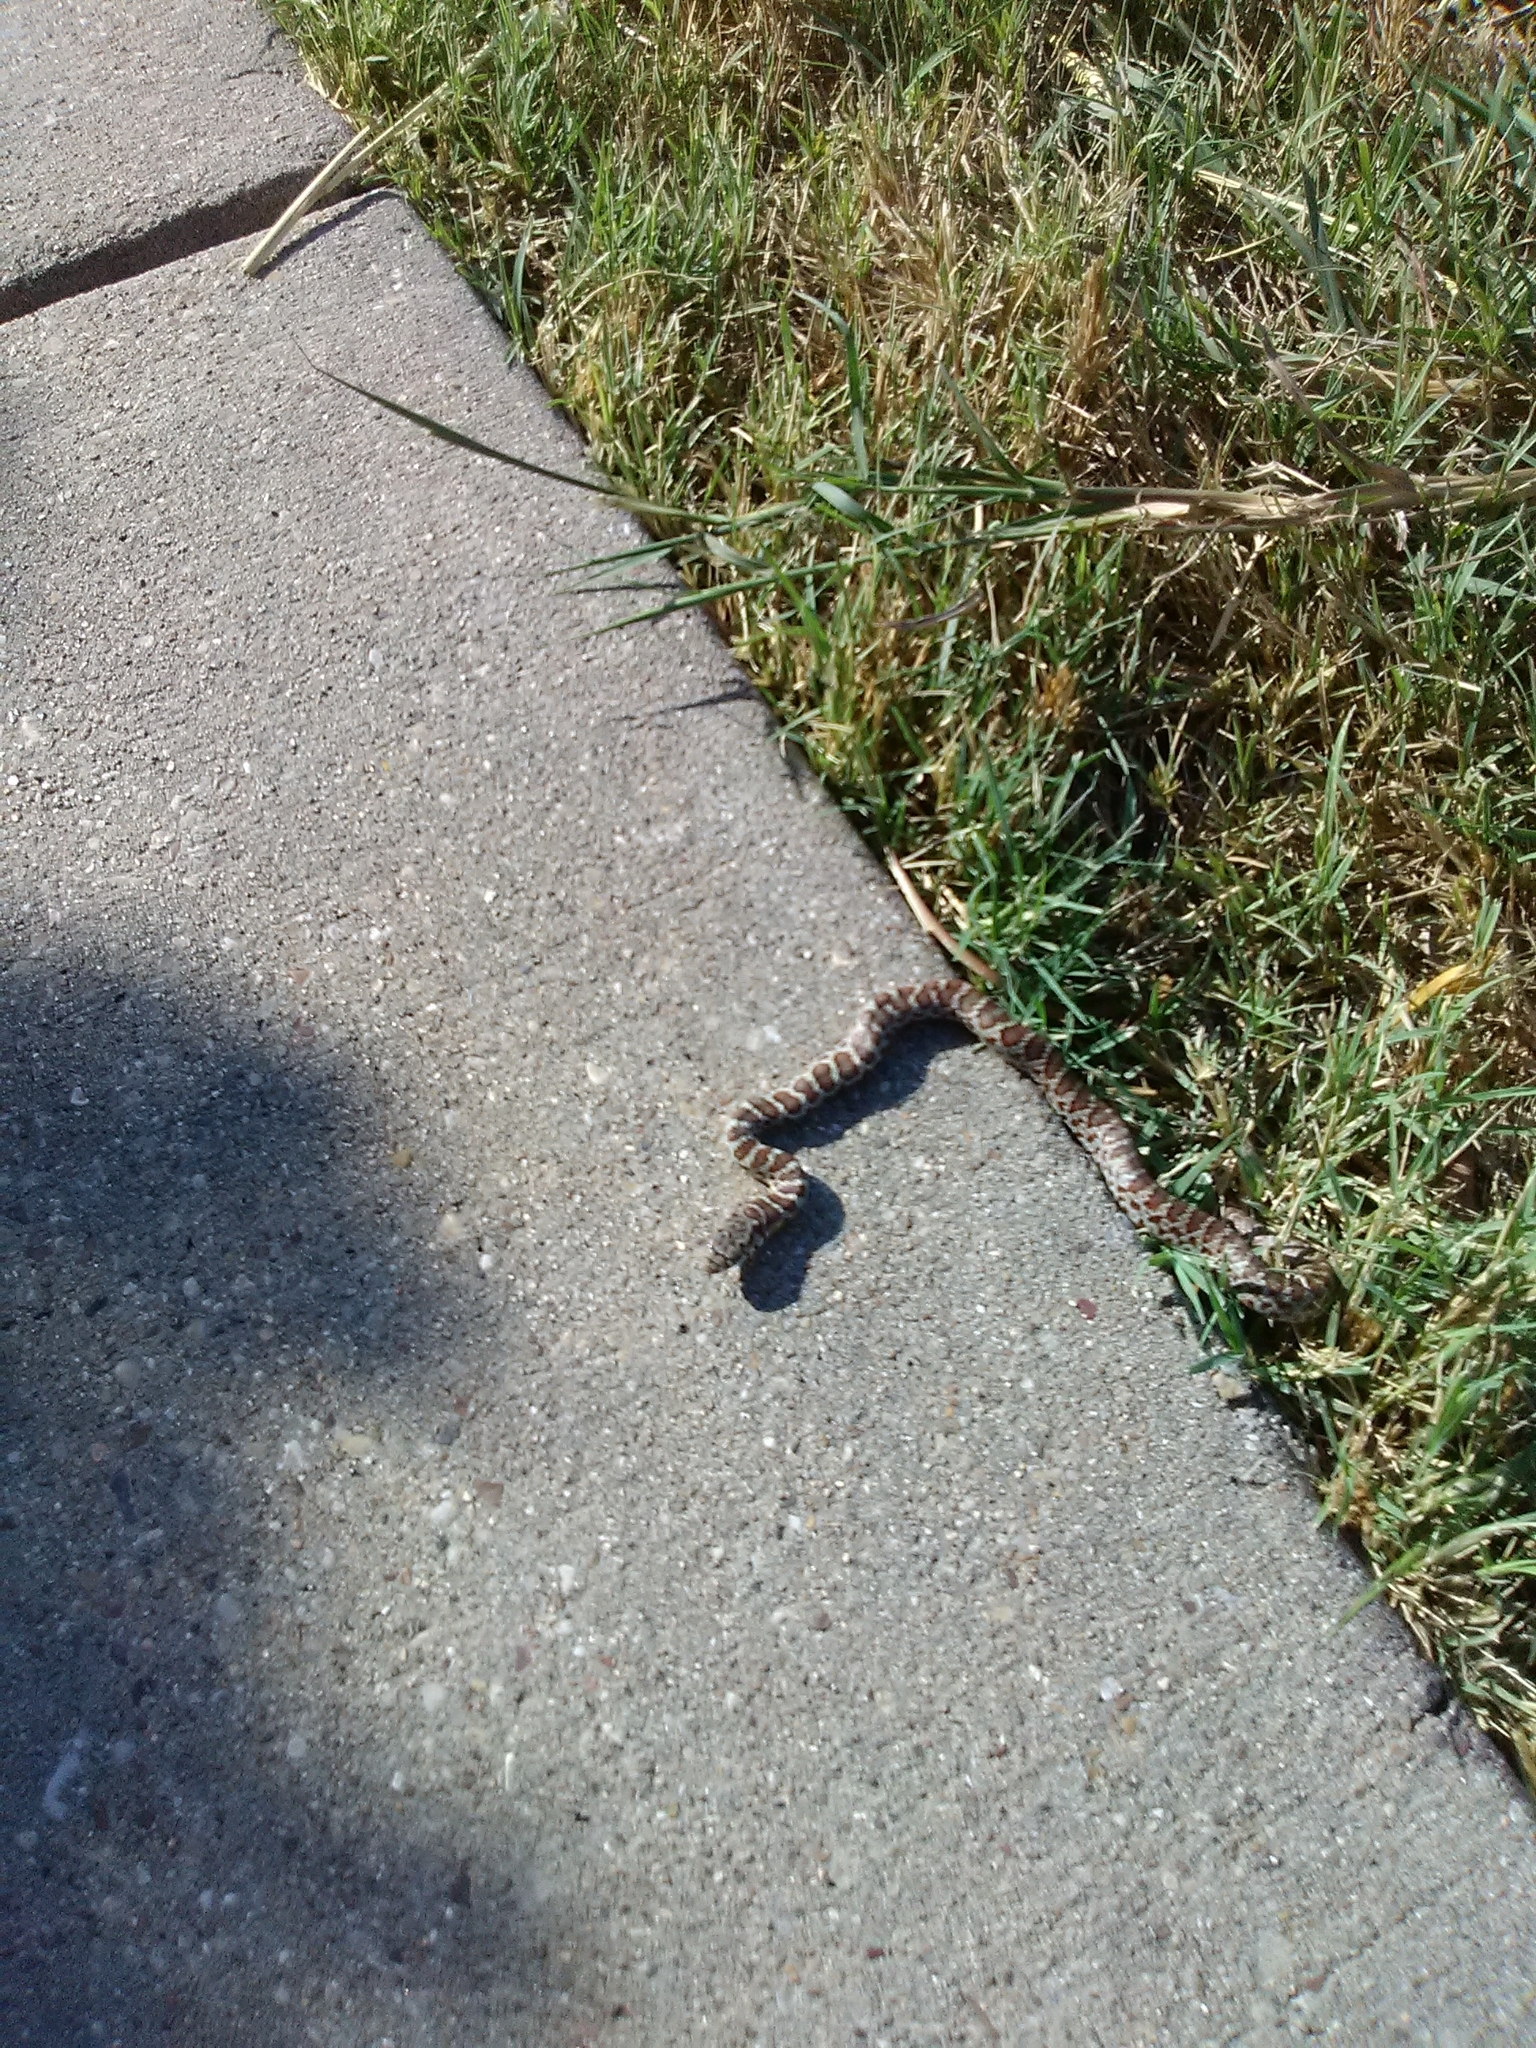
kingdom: Animalia
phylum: Chordata
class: Squamata
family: Colubridae
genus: Coluber
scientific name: Coluber constrictor
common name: Eastern racer
